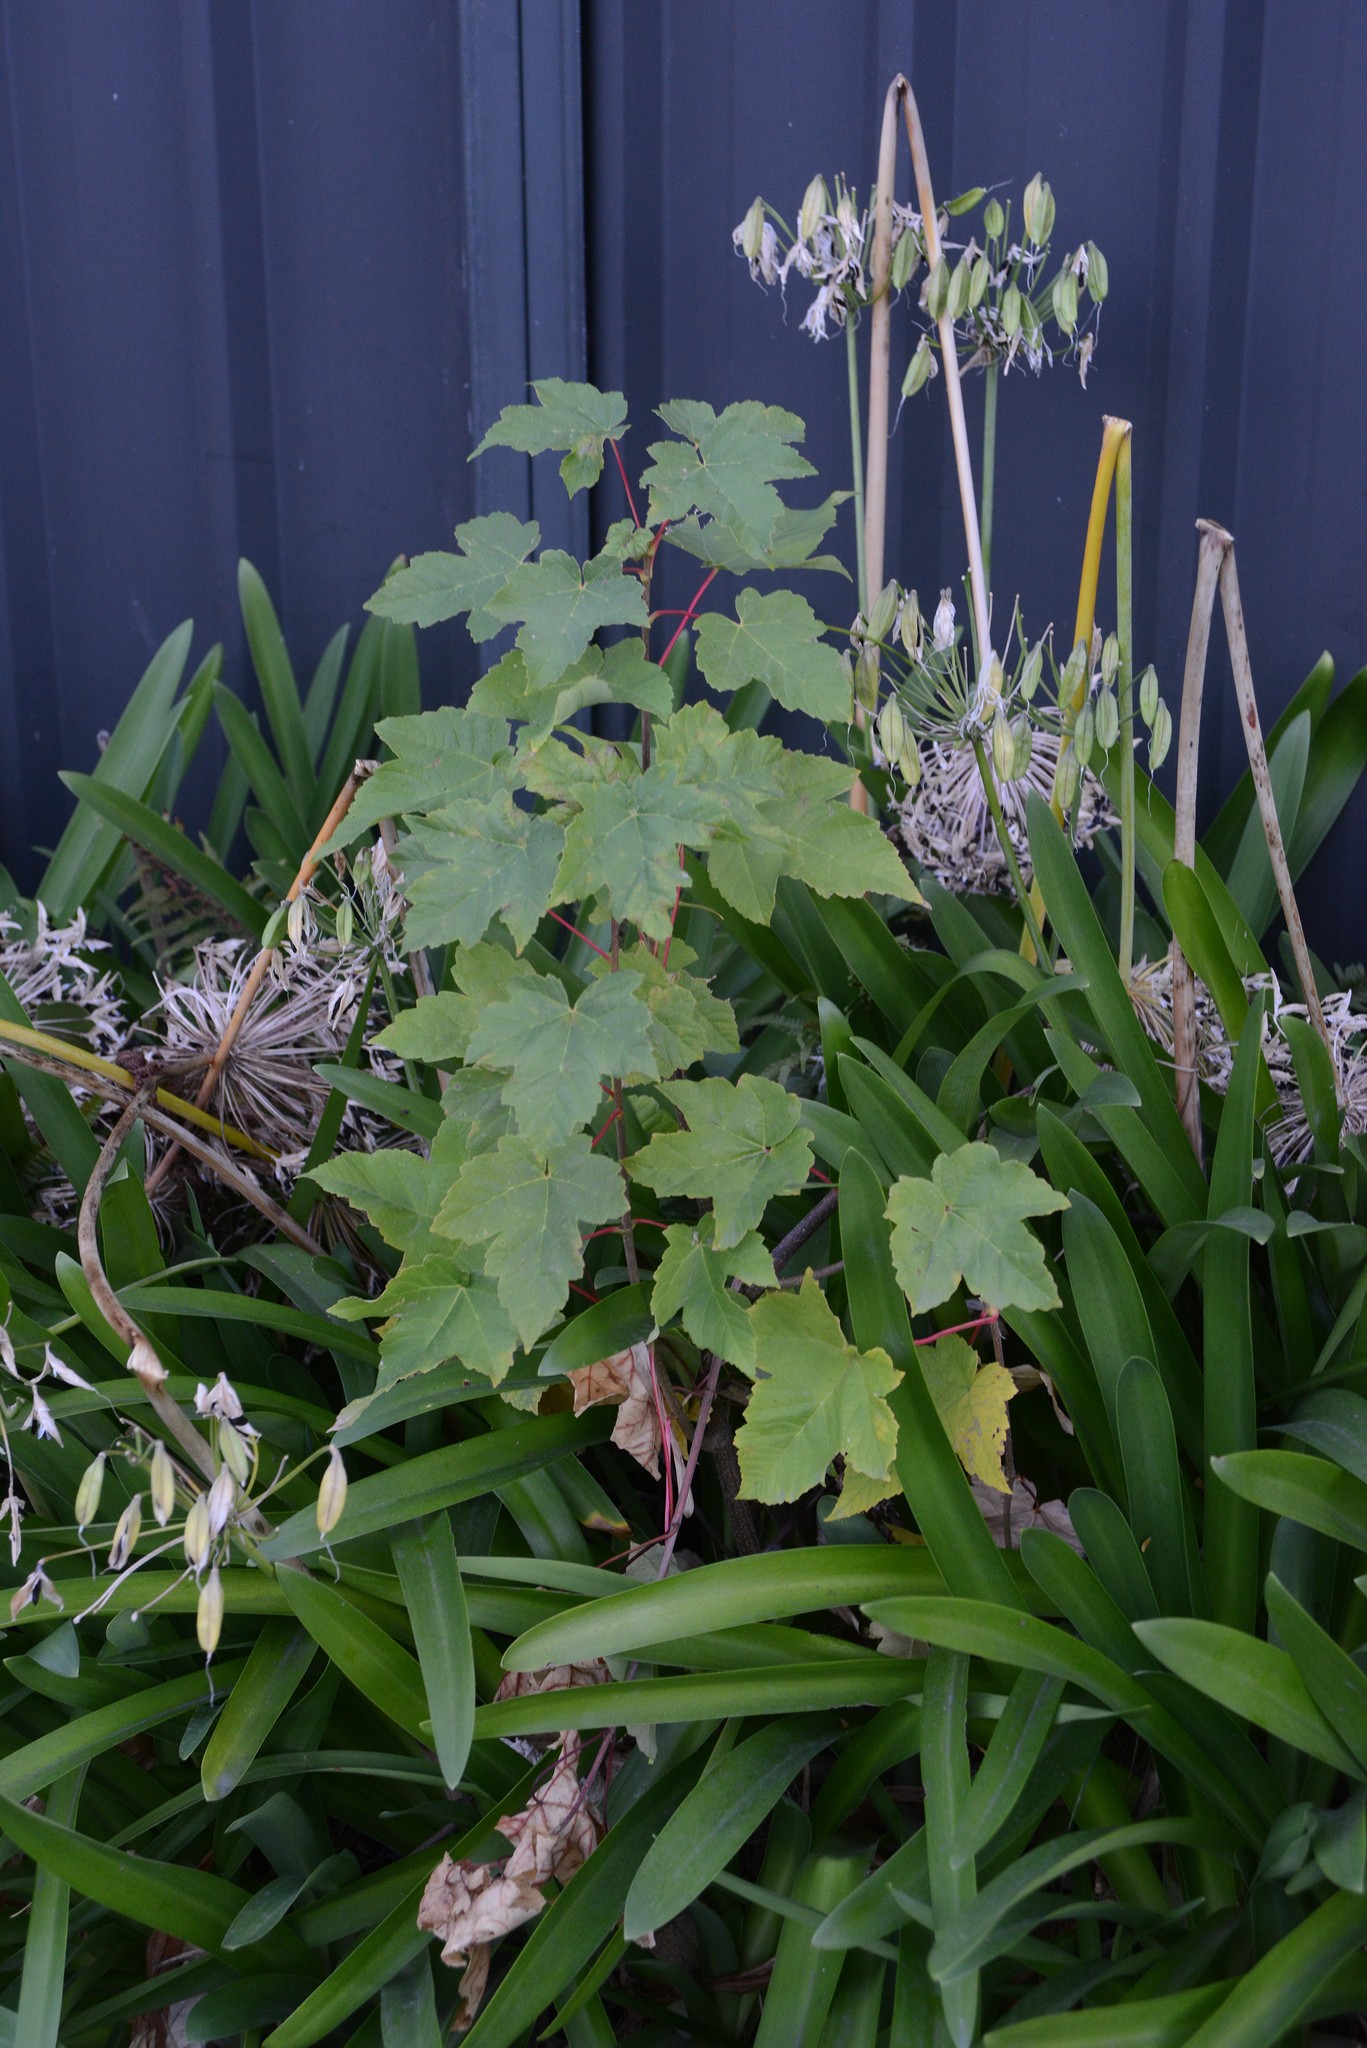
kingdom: Plantae
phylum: Tracheophyta
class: Magnoliopsida
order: Sapindales
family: Sapindaceae
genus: Acer
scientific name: Acer pseudoplatanus
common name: Sycamore
